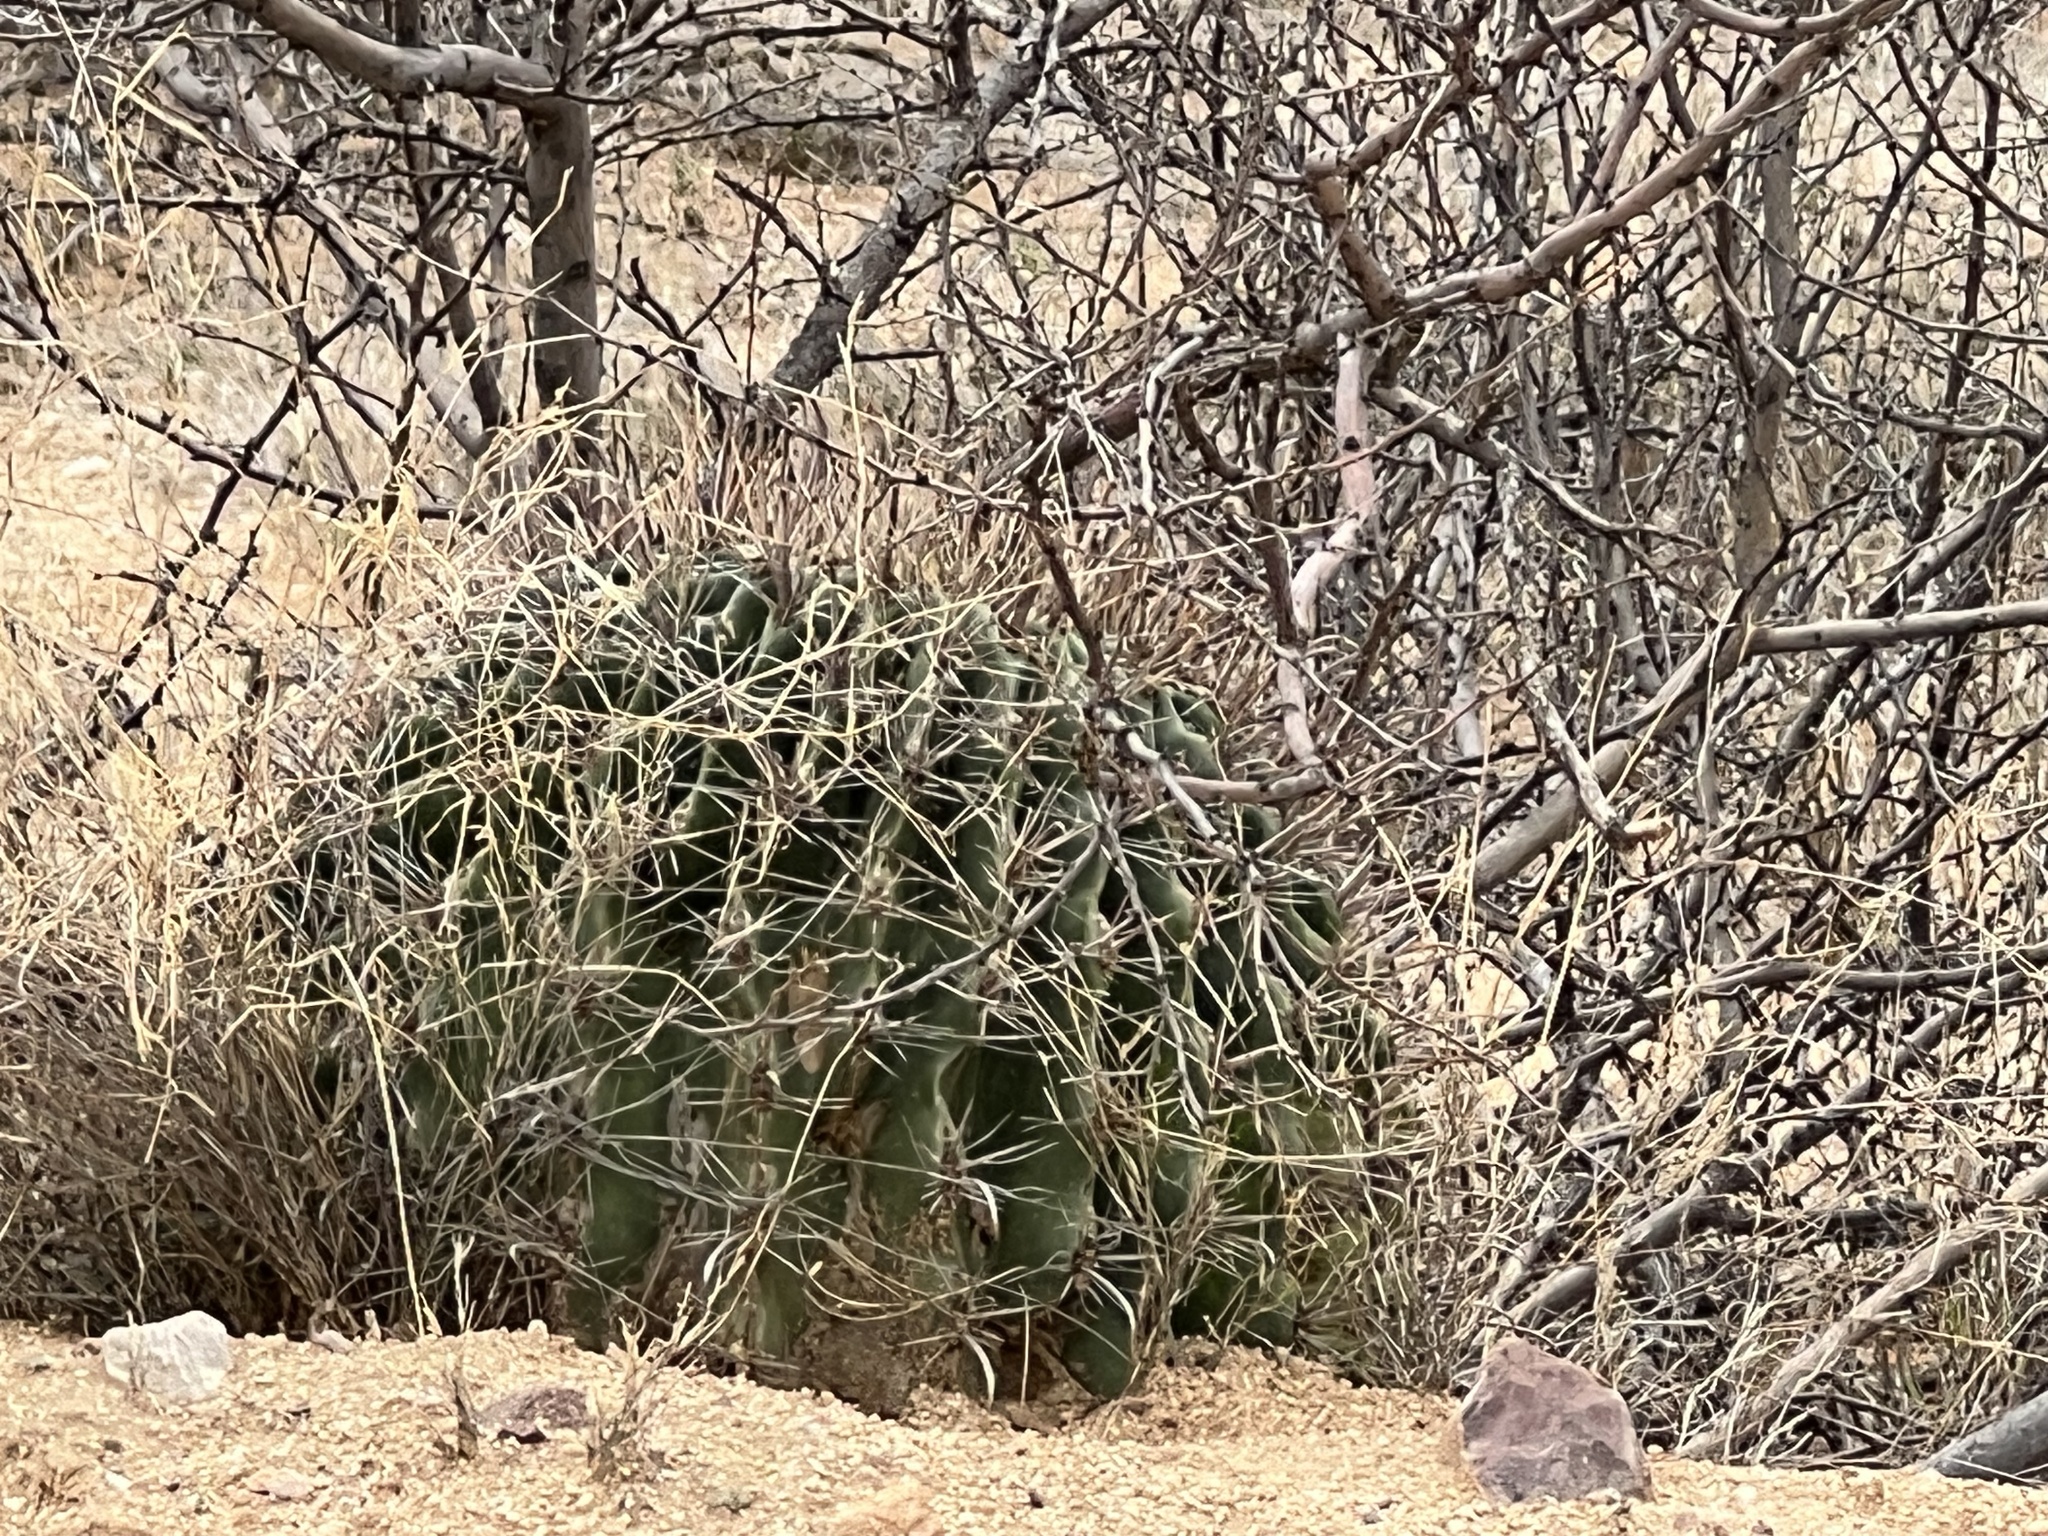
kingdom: Plantae
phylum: Tracheophyta
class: Magnoliopsida
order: Caryophyllales
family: Cactaceae
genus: Ferocactus
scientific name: Ferocactus wislizeni
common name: Candy barrel cactus
